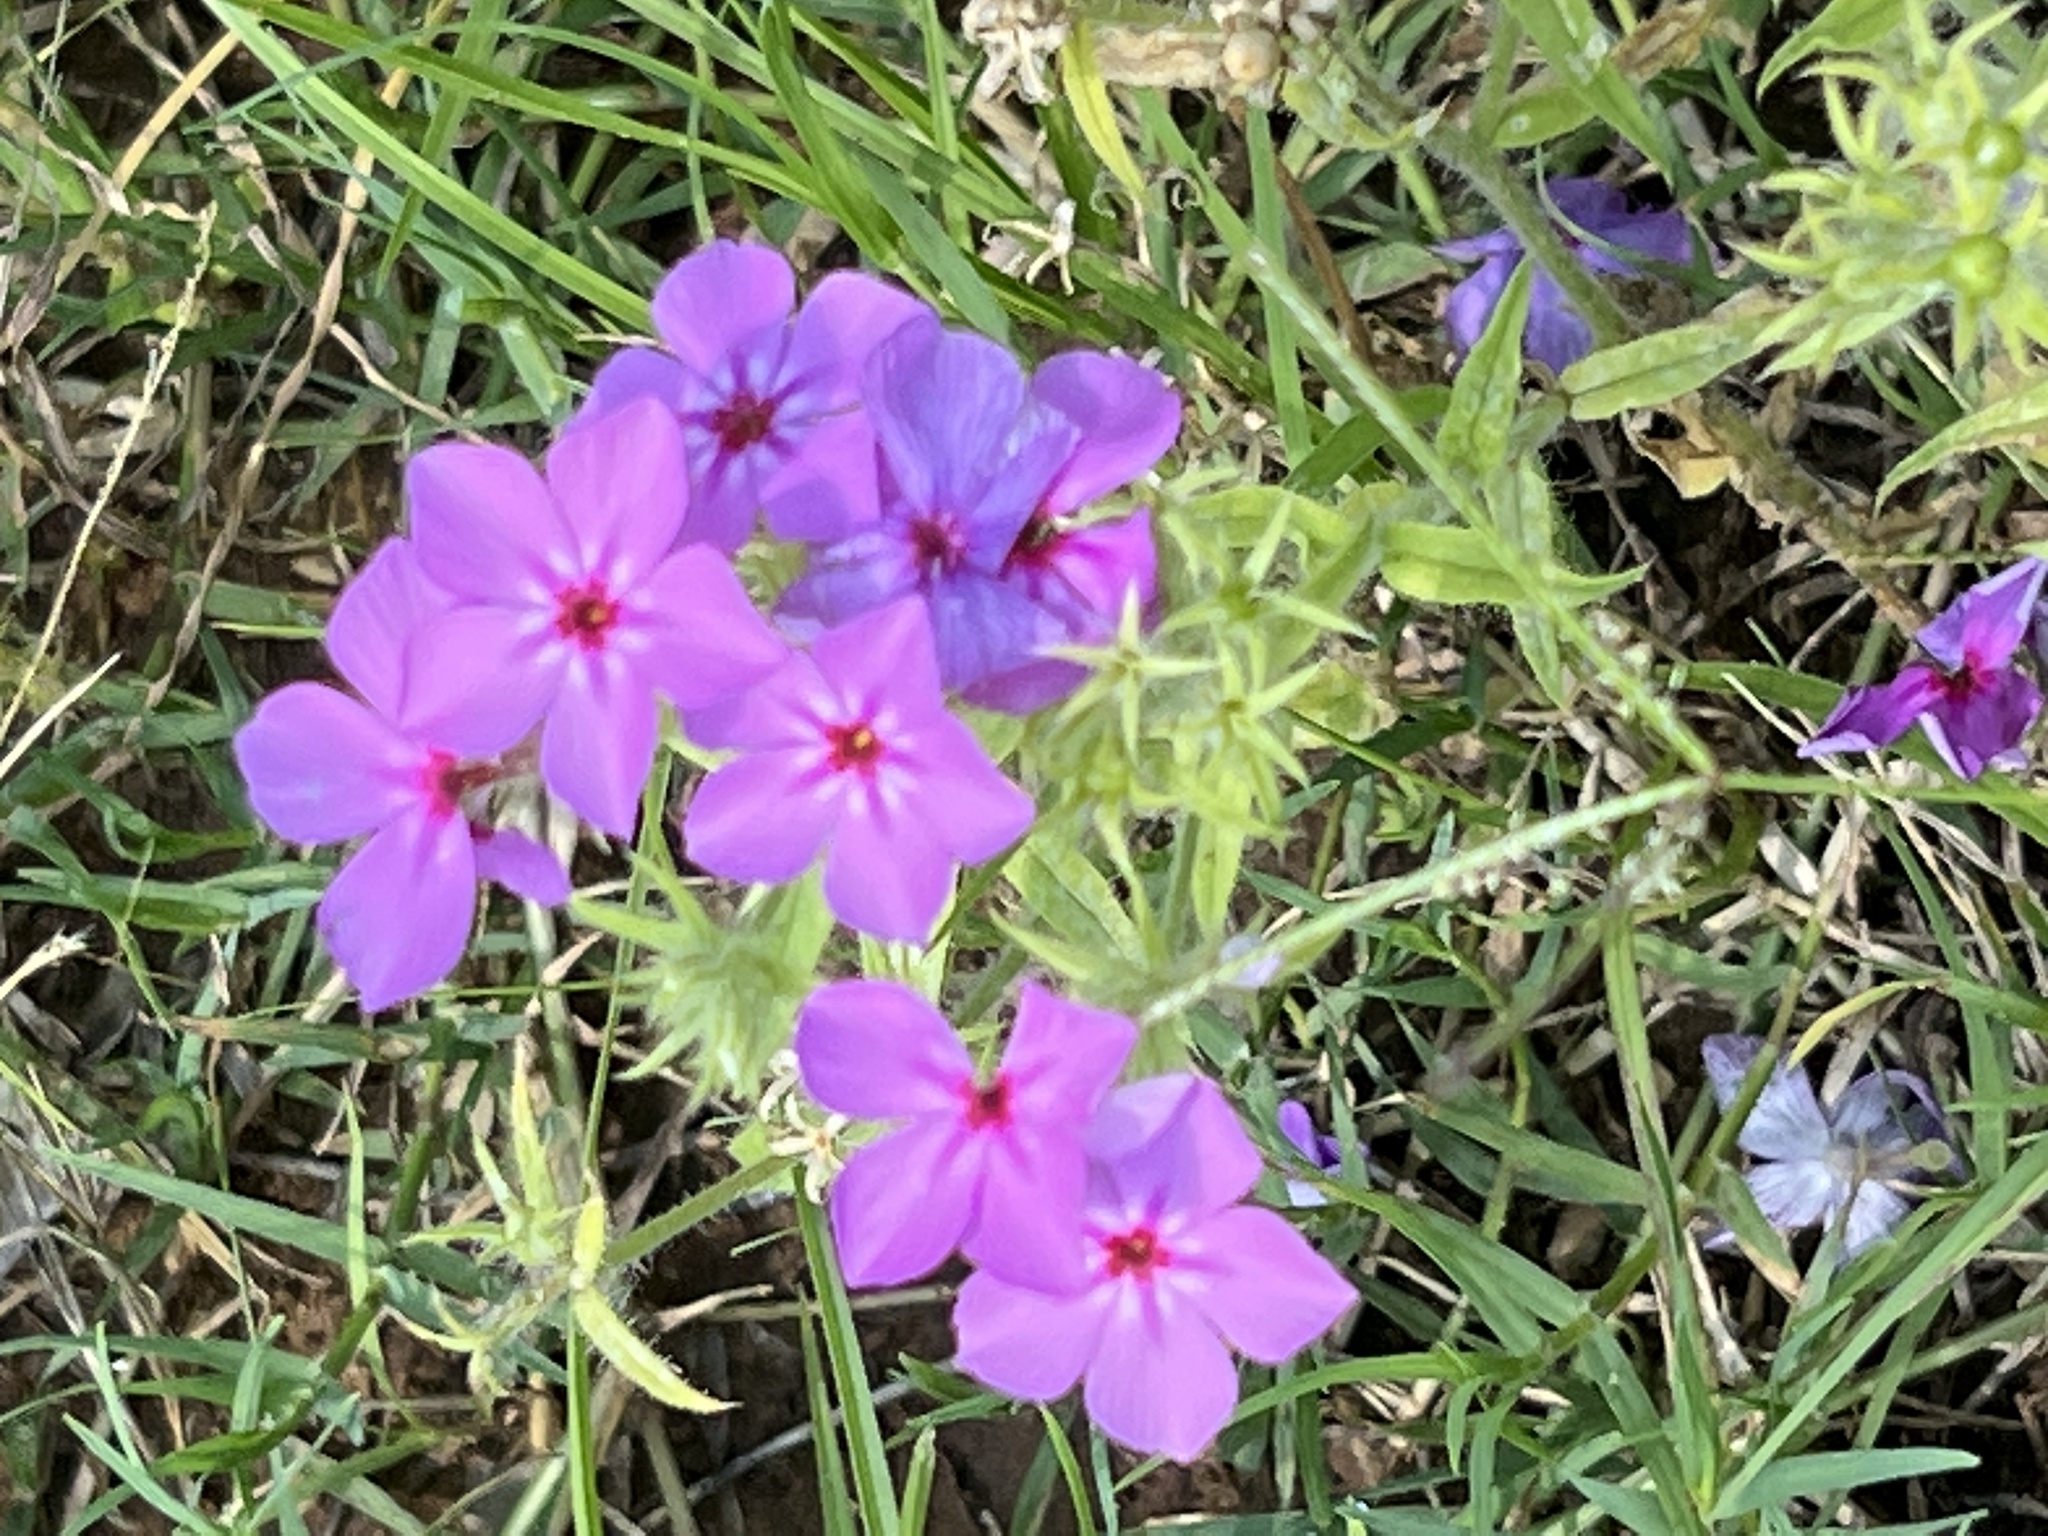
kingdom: Plantae
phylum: Tracheophyta
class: Magnoliopsida
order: Ericales
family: Polemoniaceae
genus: Phlox
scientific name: Phlox drummondii
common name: Drummond's phlox
